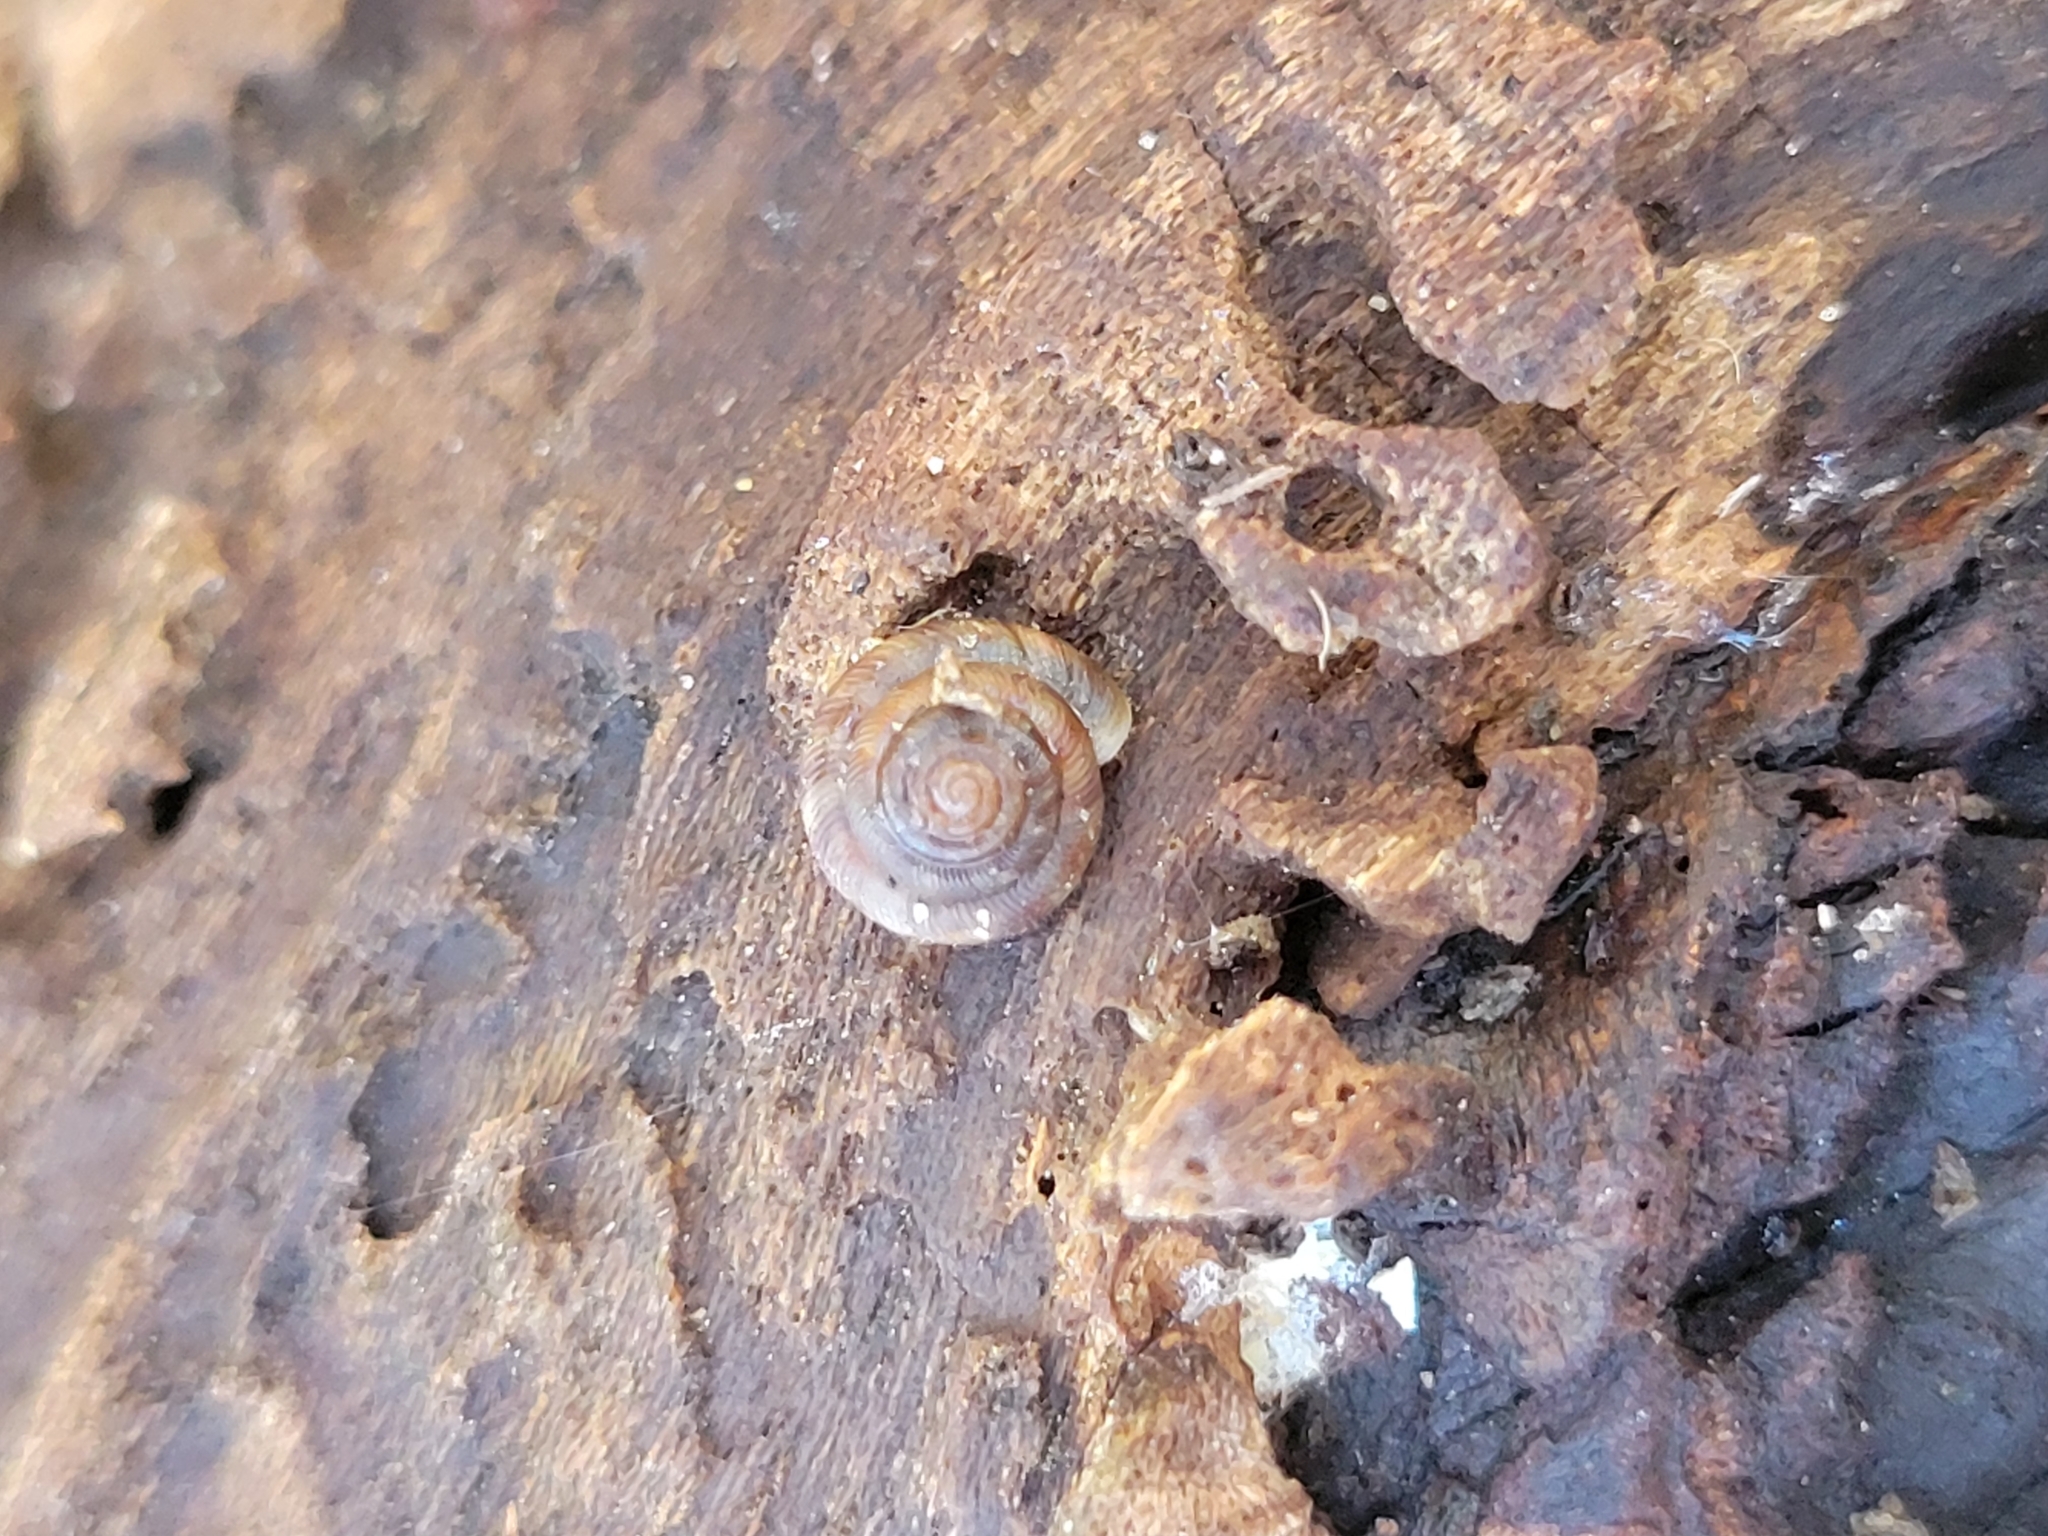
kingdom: Animalia
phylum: Mollusca
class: Gastropoda
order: Stylommatophora
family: Discidae
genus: Discus
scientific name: Discus rotundatus
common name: Rounded snail
